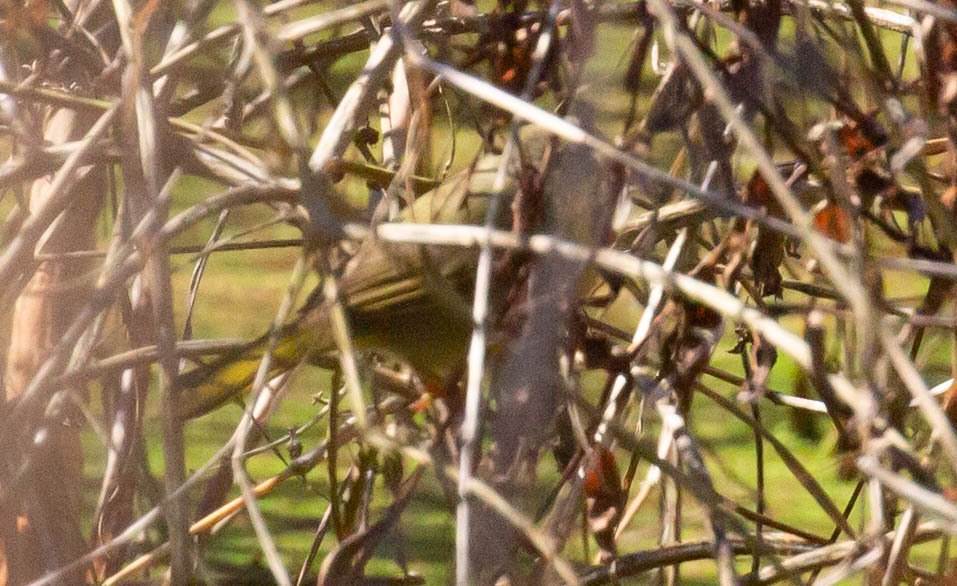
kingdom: Animalia
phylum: Chordata
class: Aves
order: Passeriformes
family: Parulidae
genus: Geothlypis
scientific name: Geothlypis trichas
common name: Common yellowthroat
